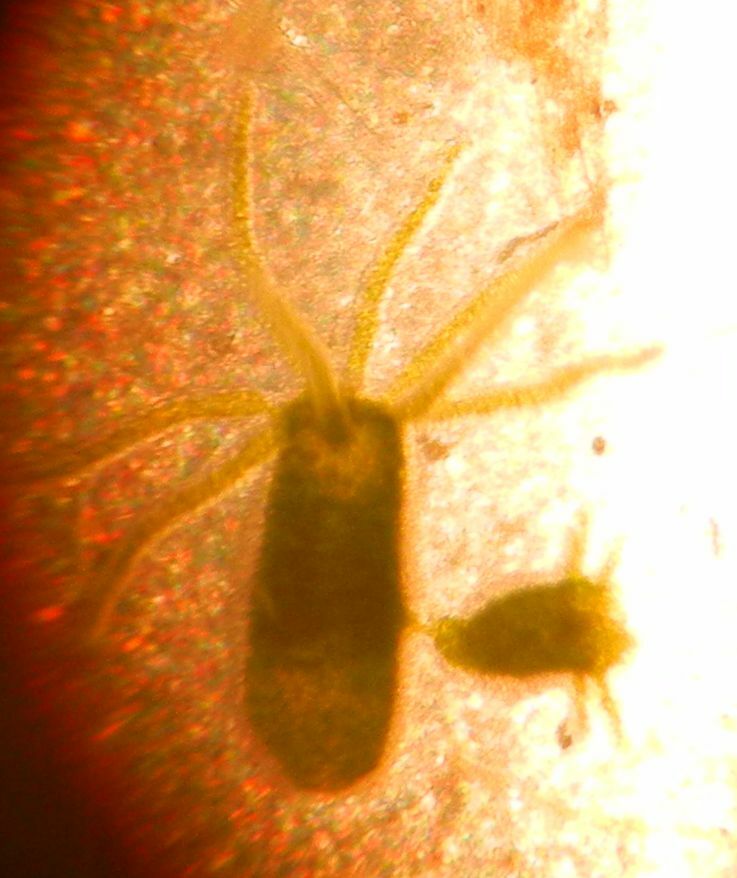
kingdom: Animalia
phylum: Cnidaria
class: Hydrozoa
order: Anthoathecata
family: Hydridae
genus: Hydra
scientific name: Hydra viridissima
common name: Green hydra
